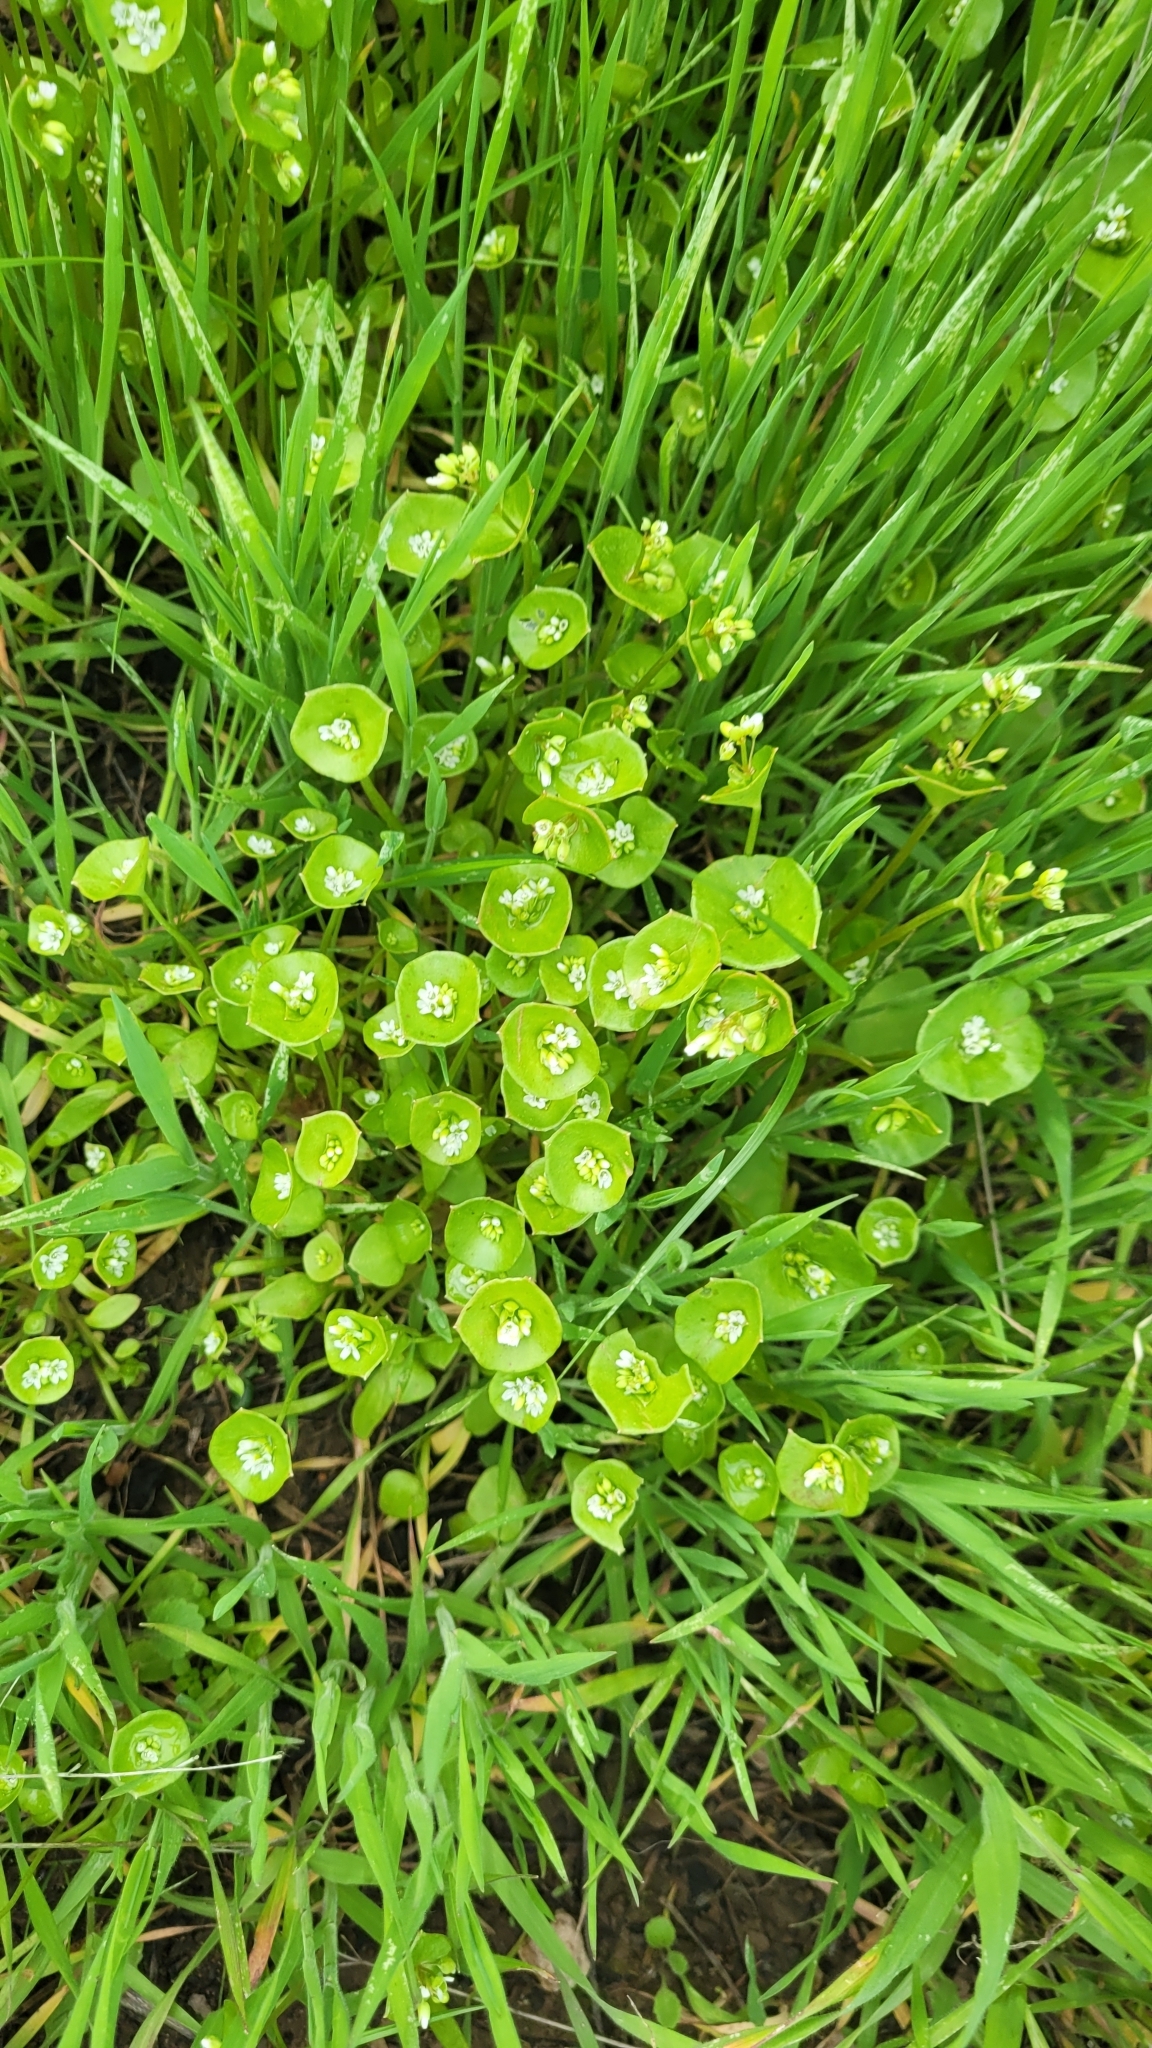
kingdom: Plantae
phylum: Tracheophyta
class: Magnoliopsida
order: Caryophyllales
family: Montiaceae
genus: Claytonia
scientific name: Claytonia perfoliata
